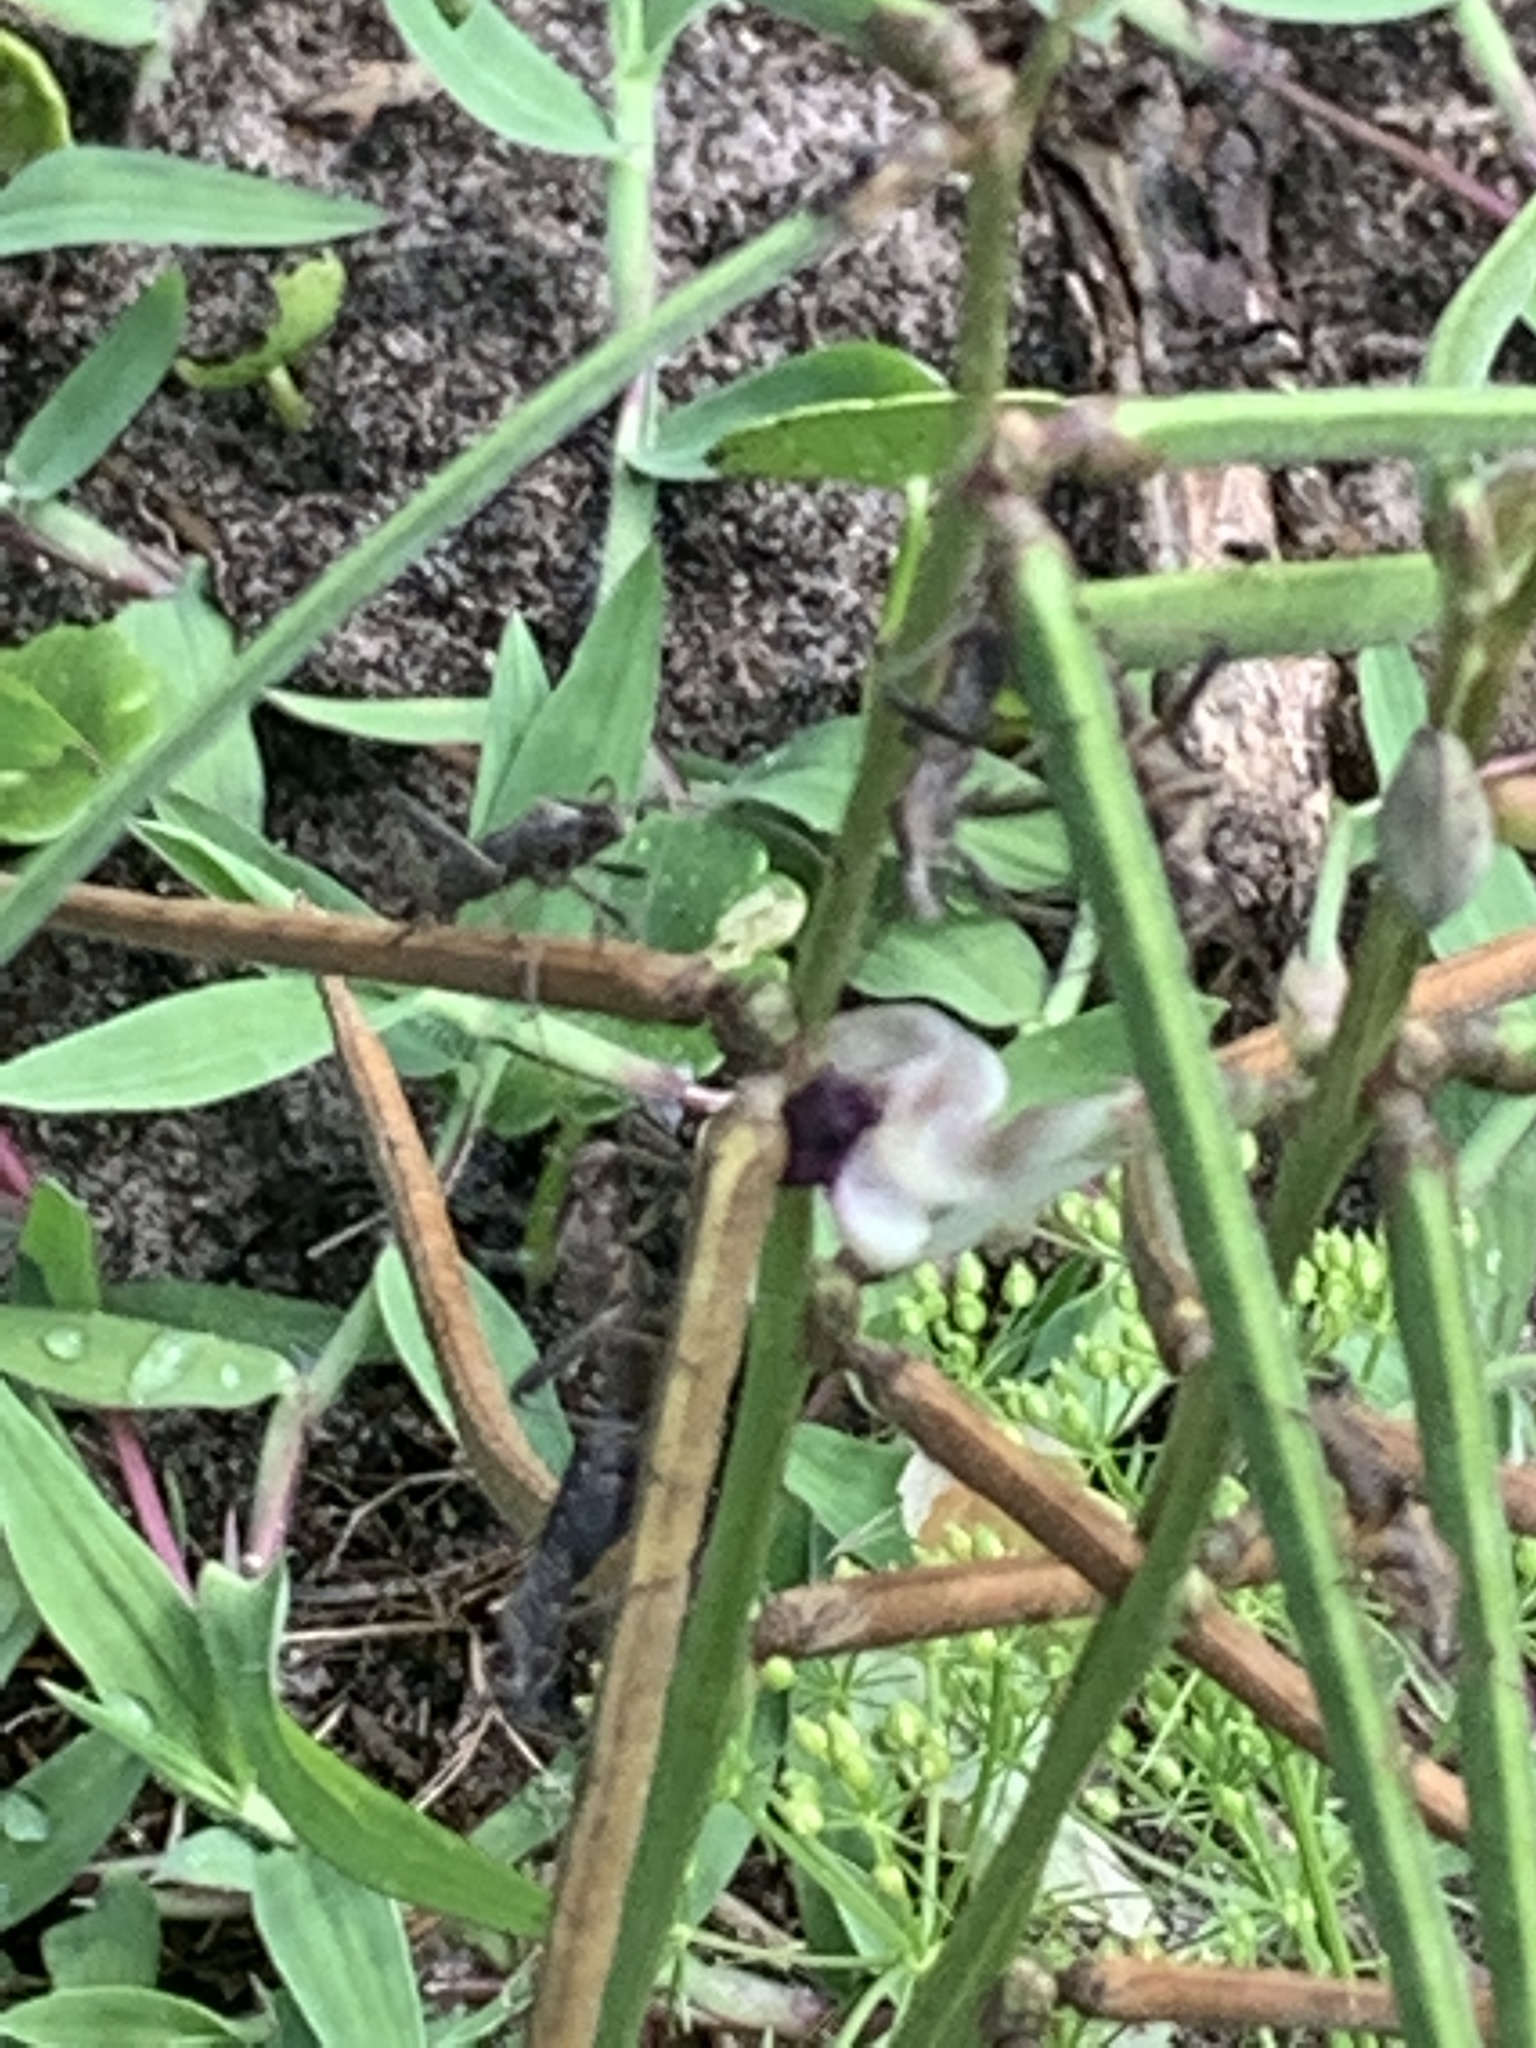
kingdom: Plantae
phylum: Tracheophyta
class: Magnoliopsida
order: Fabales
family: Fabaceae
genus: Macroptilium
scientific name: Macroptilium lathyroides
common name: Wild bushbean
